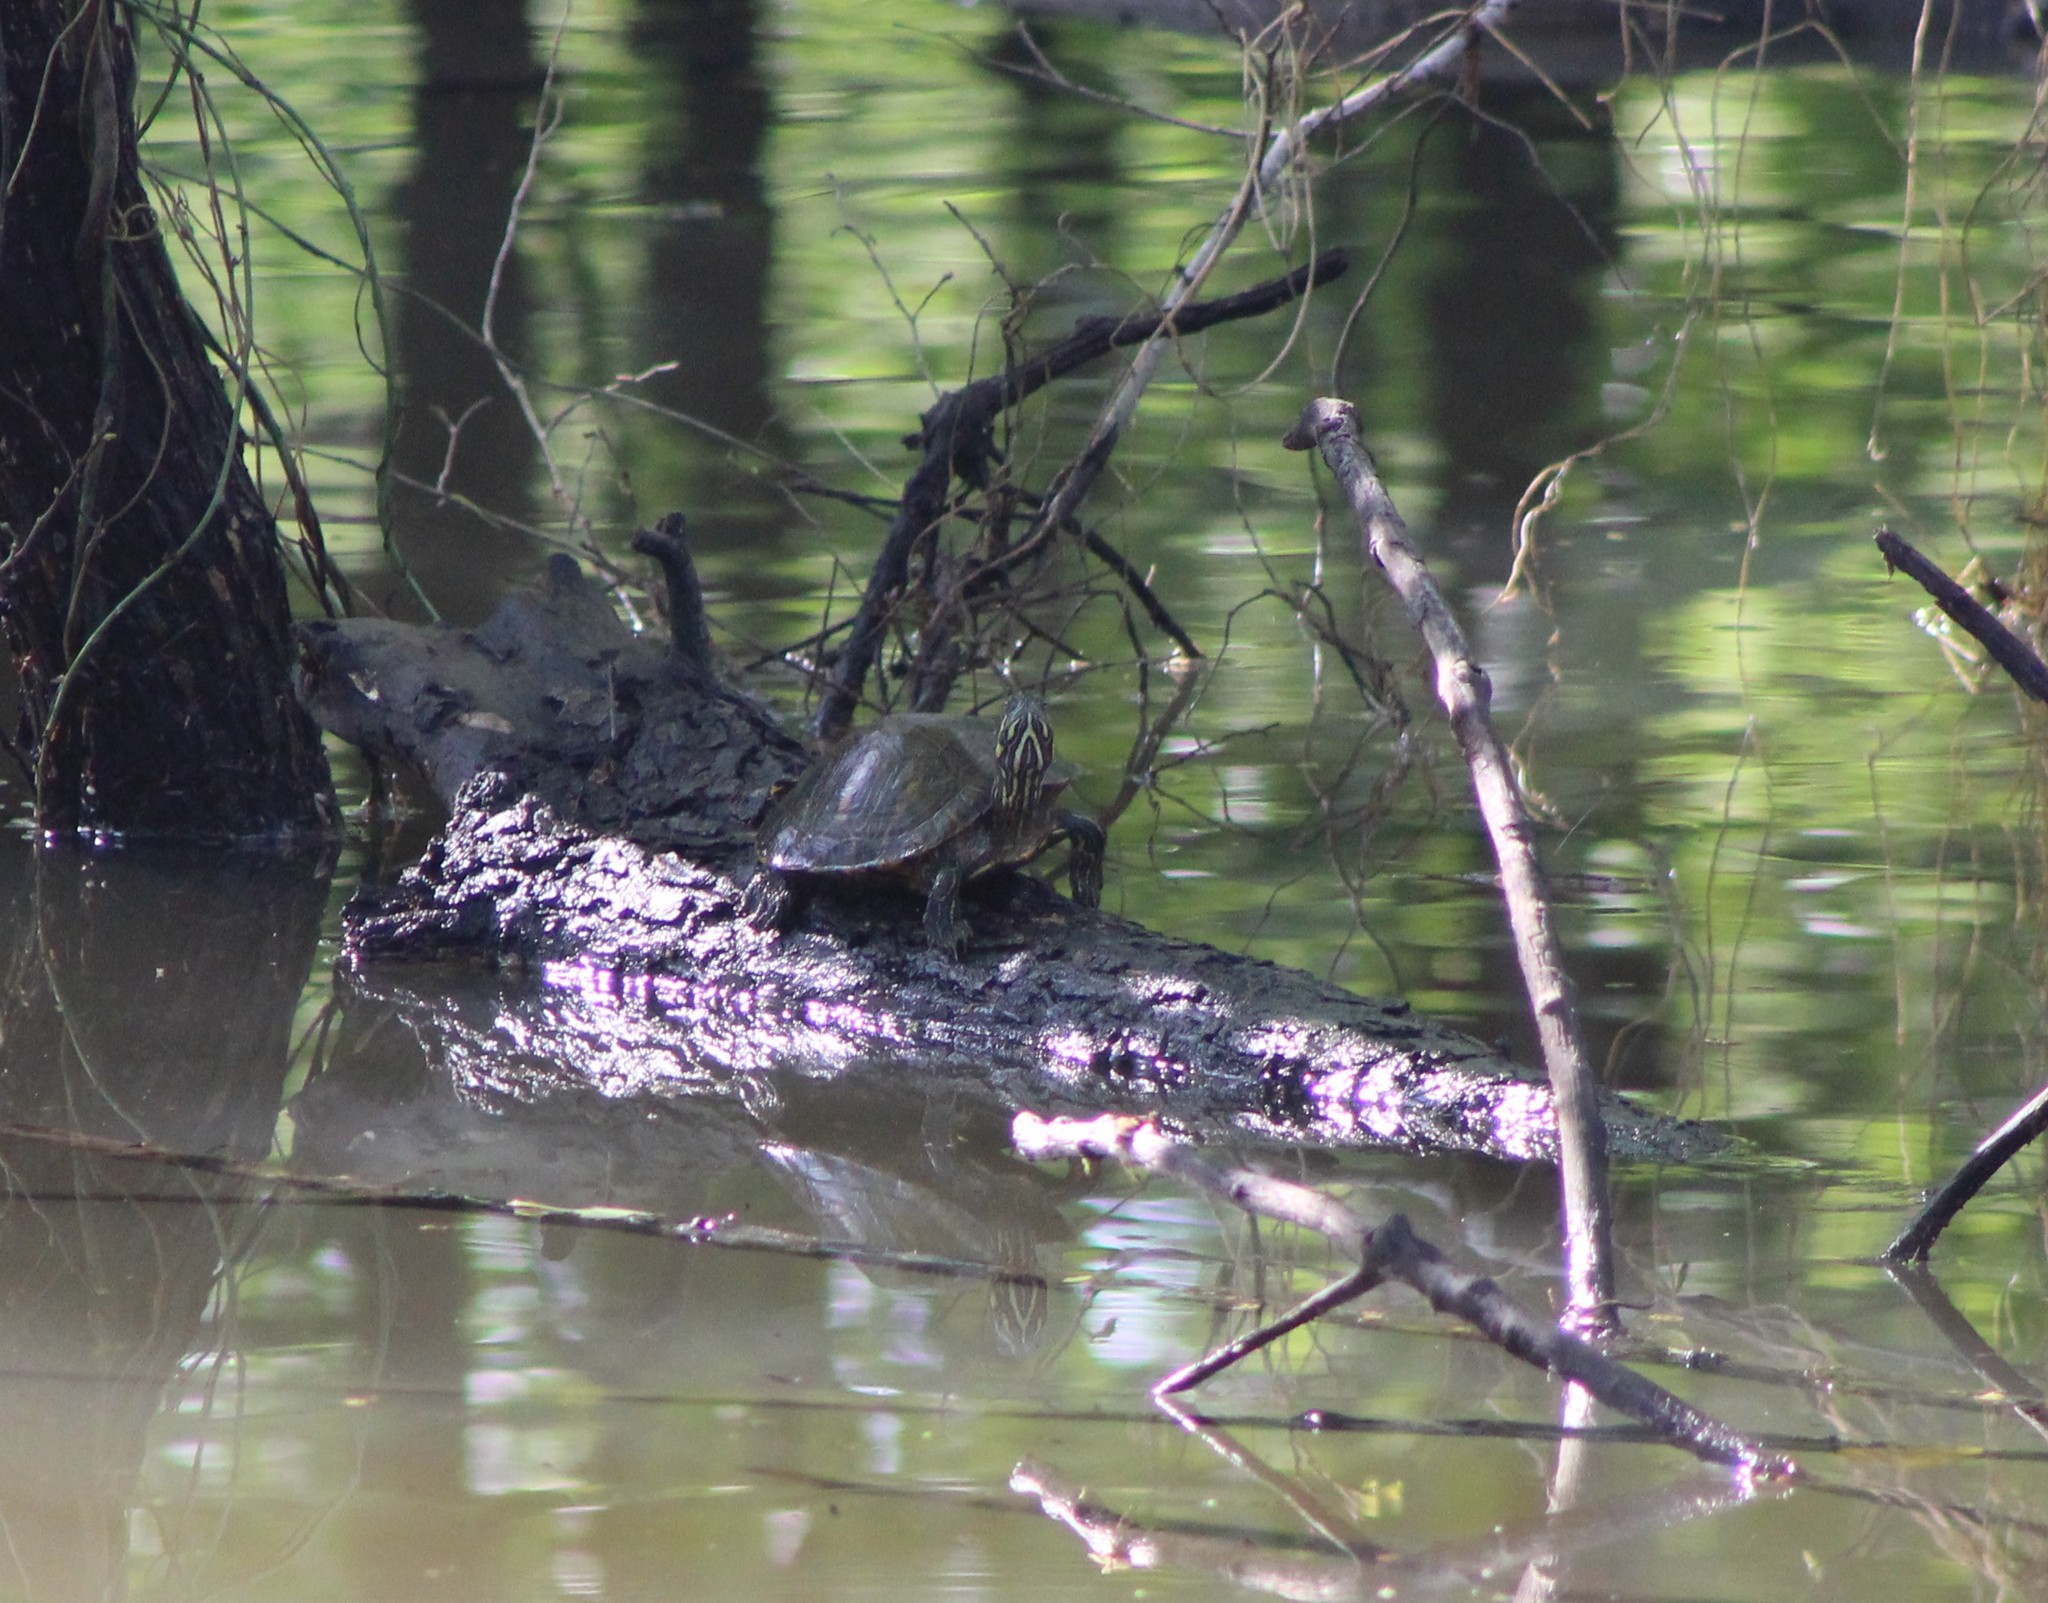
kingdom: Animalia
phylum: Chordata
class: Testudines
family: Emydidae
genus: Trachemys
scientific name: Trachemys scripta
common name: Slider
